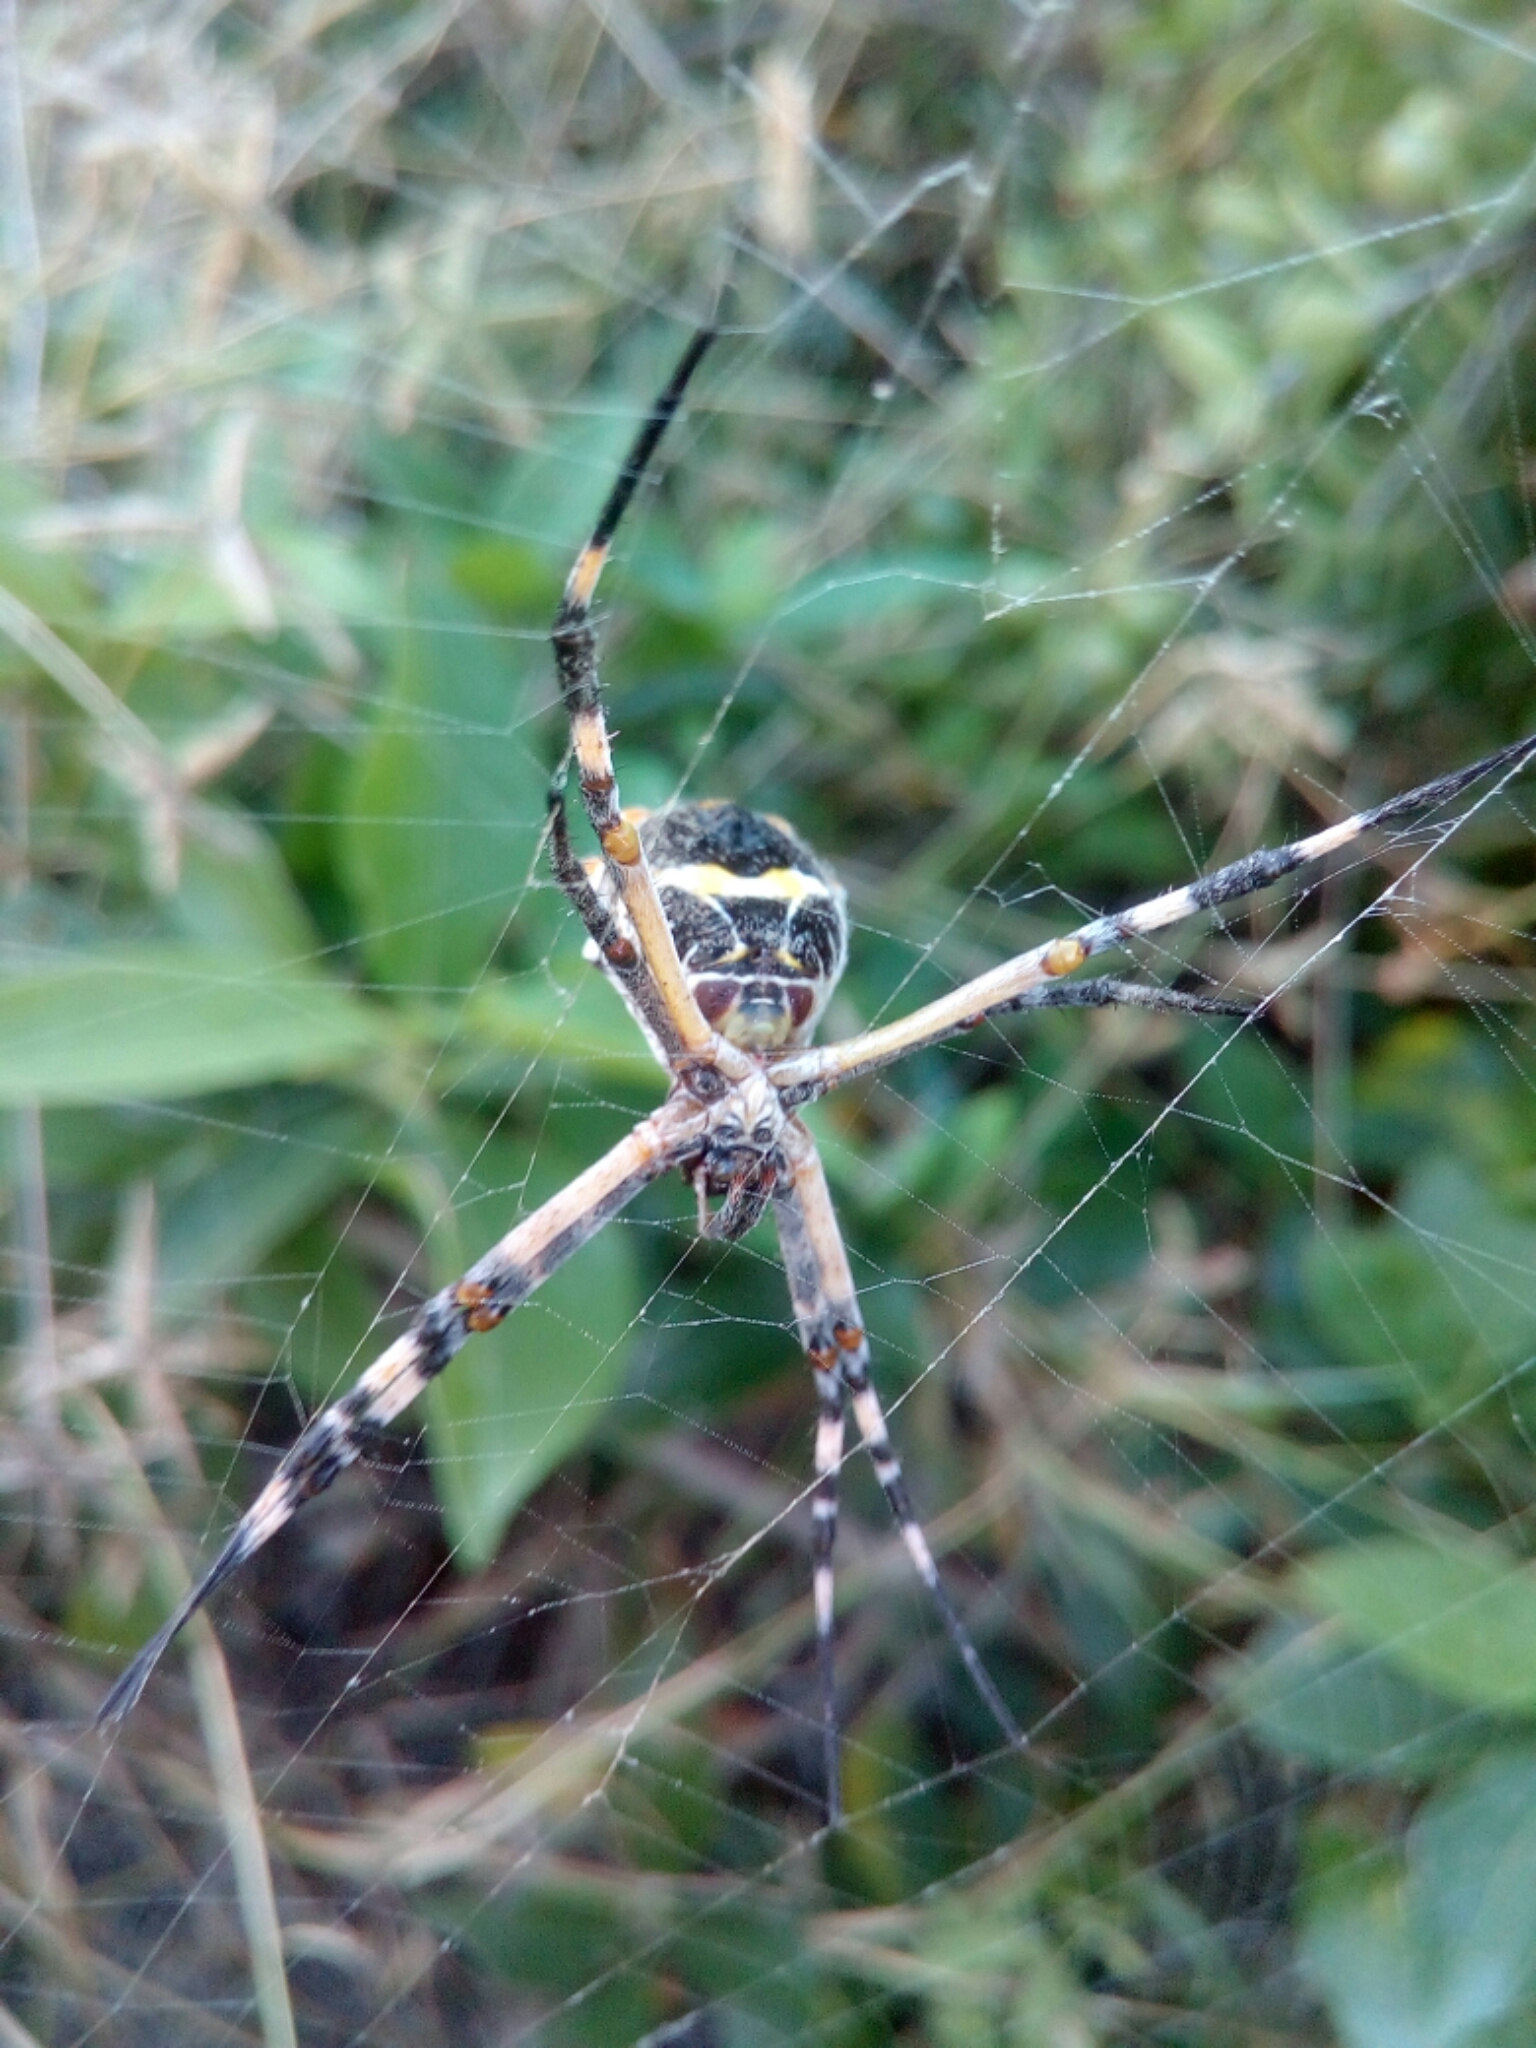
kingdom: Animalia
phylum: Arthropoda
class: Arachnida
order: Araneae
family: Araneidae
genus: Argiope
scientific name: Argiope argentata
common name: Orb weavers
